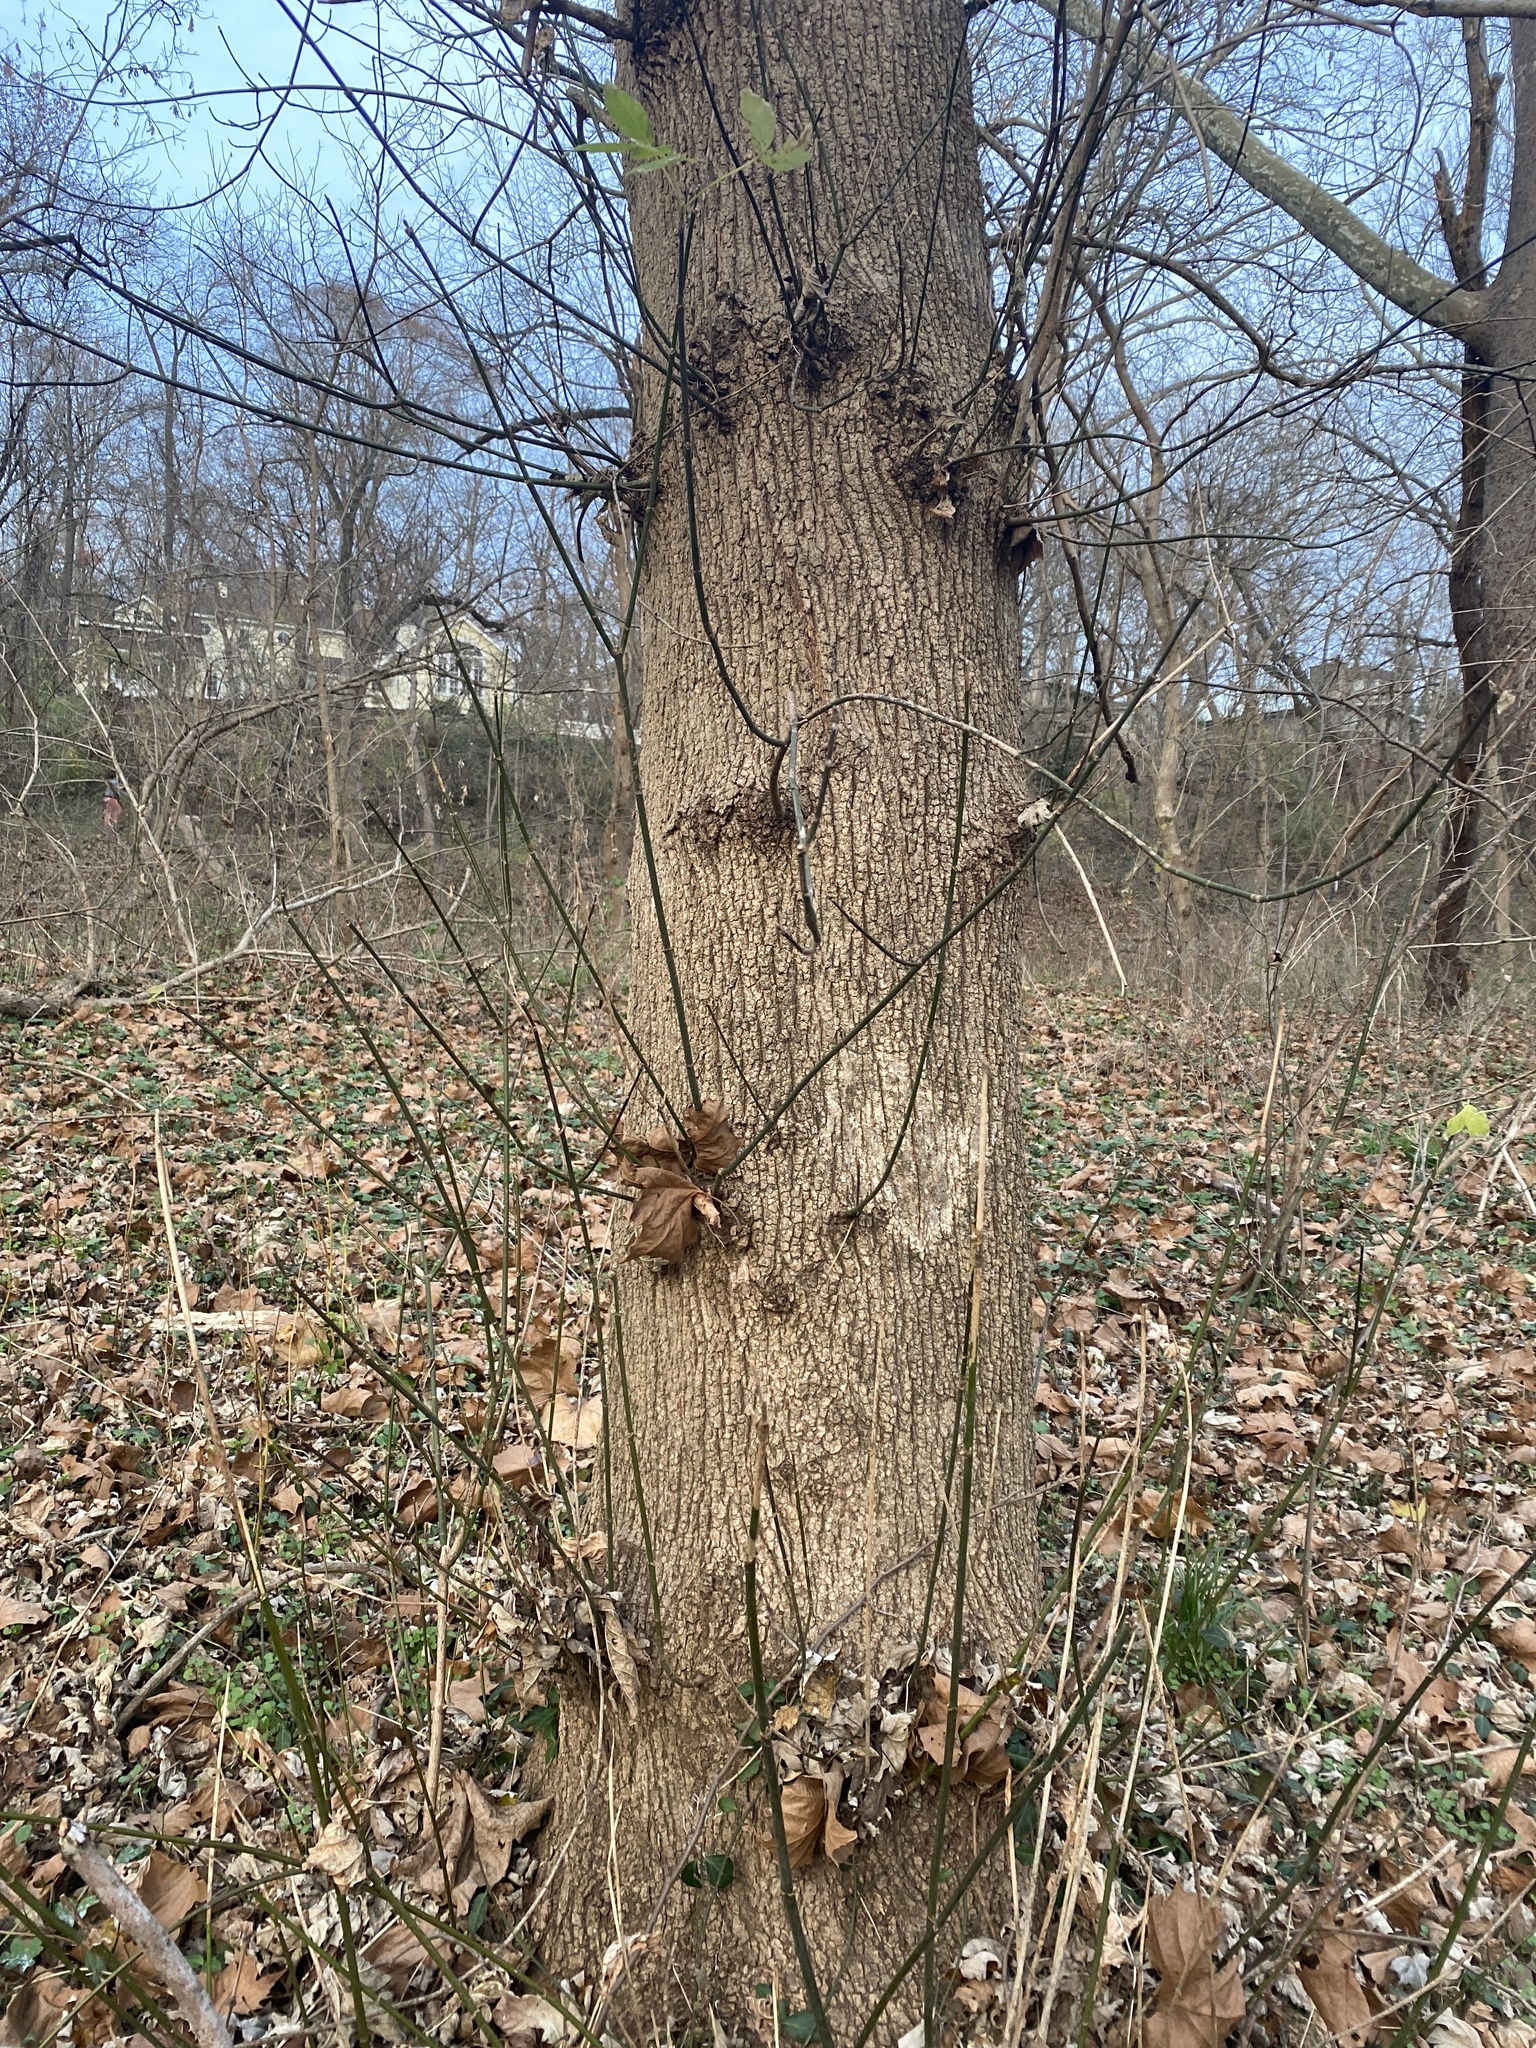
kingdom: Plantae
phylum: Tracheophyta
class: Magnoliopsida
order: Sapindales
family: Sapindaceae
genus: Acer
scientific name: Acer negundo
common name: Ashleaf maple
